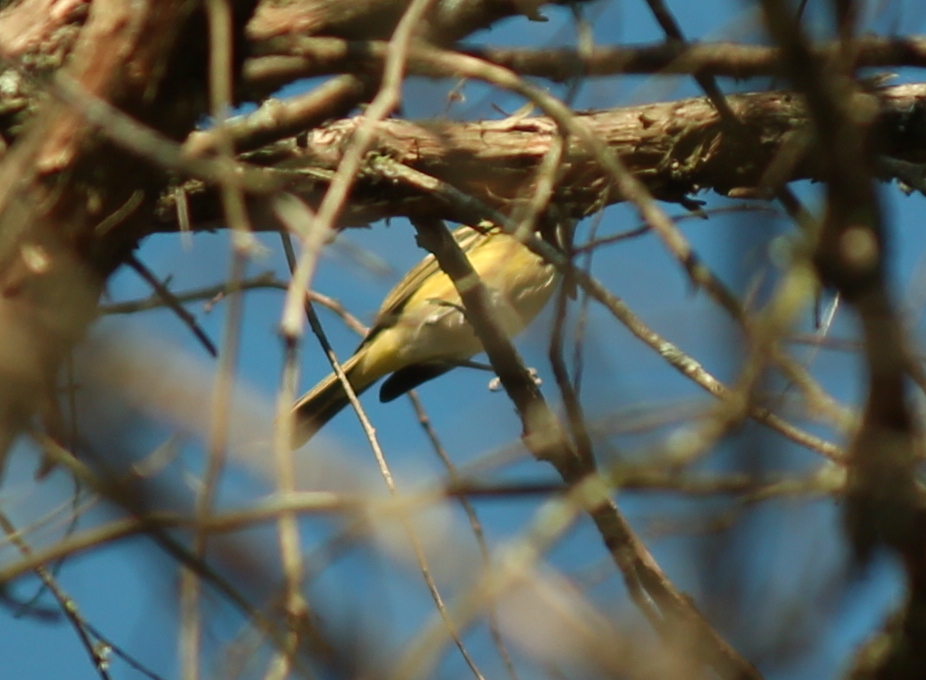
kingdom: Animalia
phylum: Chordata
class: Aves
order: Passeriformes
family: Vireonidae
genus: Vireo
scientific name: Vireo griseus
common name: White-eyed vireo
